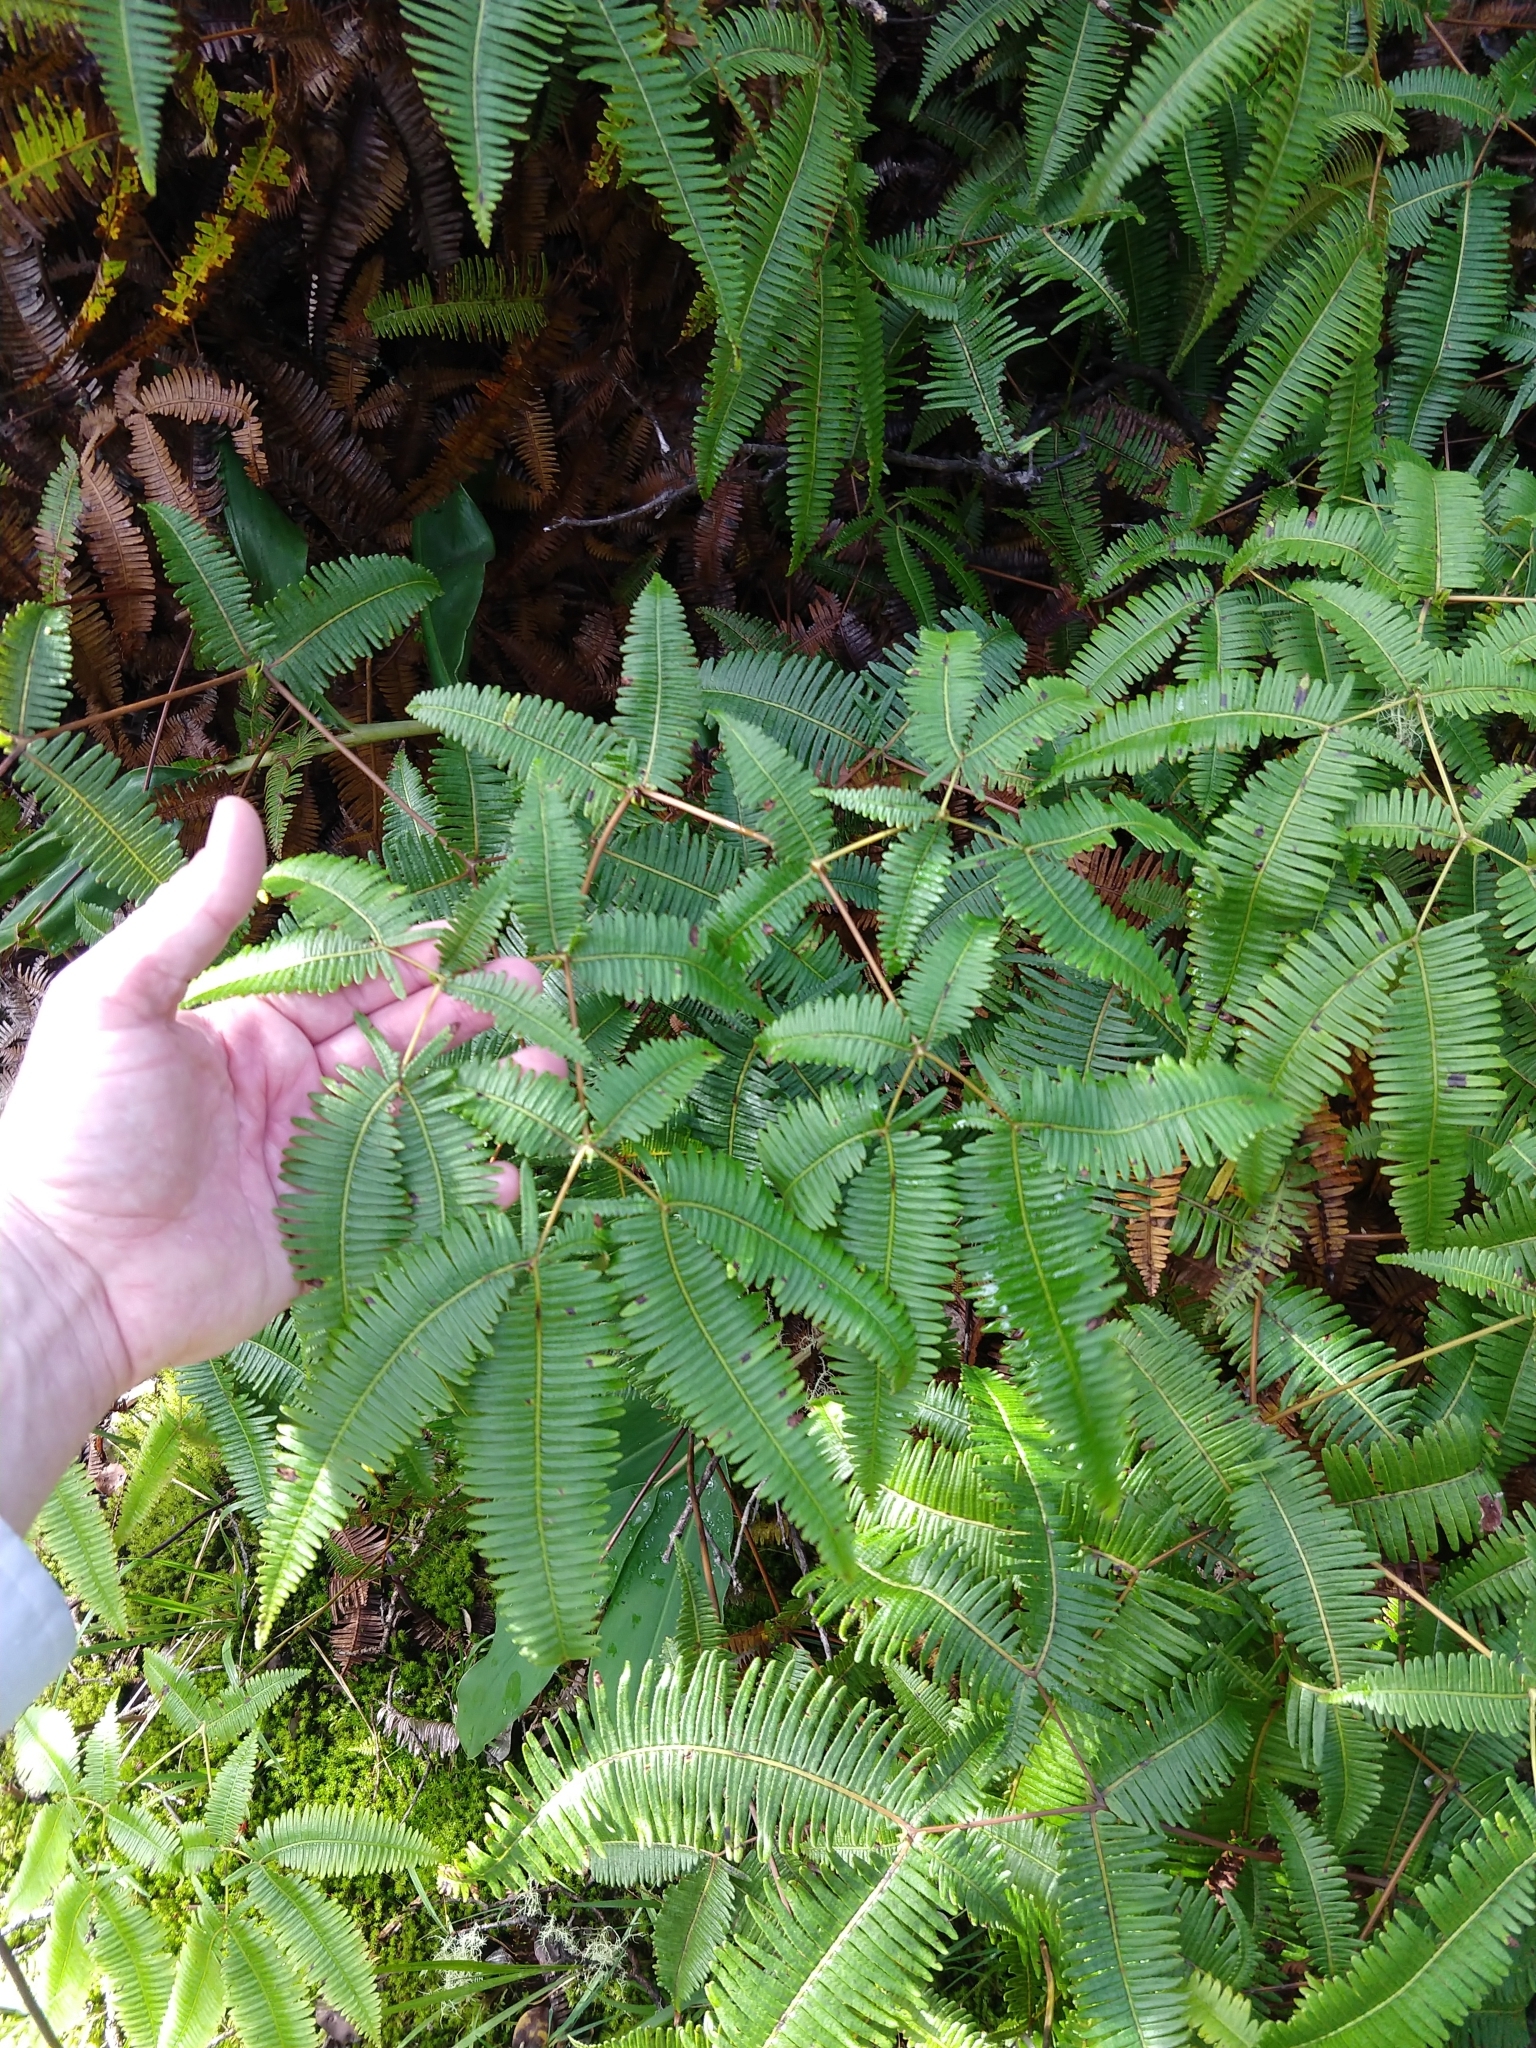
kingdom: Plantae
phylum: Tracheophyta
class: Polypodiopsida
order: Gleicheniales
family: Gleicheniaceae
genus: Dicranopteris
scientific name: Dicranopteris linearis
